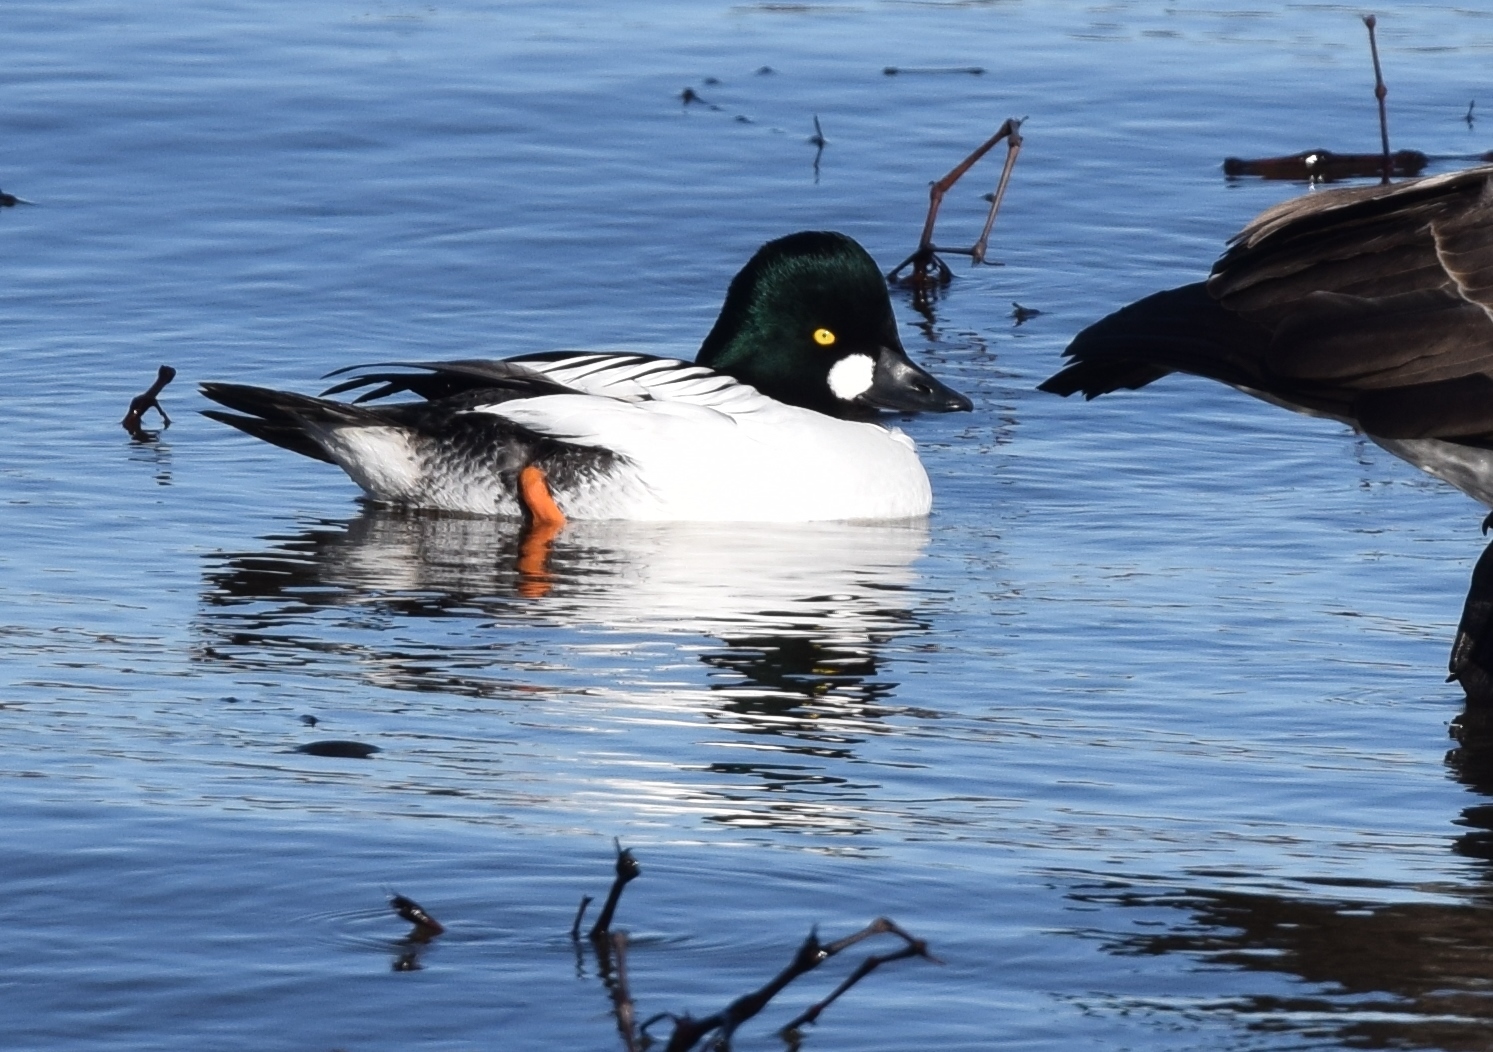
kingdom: Animalia
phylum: Chordata
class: Aves
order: Anseriformes
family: Anatidae
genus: Bucephala
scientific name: Bucephala clangula
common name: Common goldeneye
